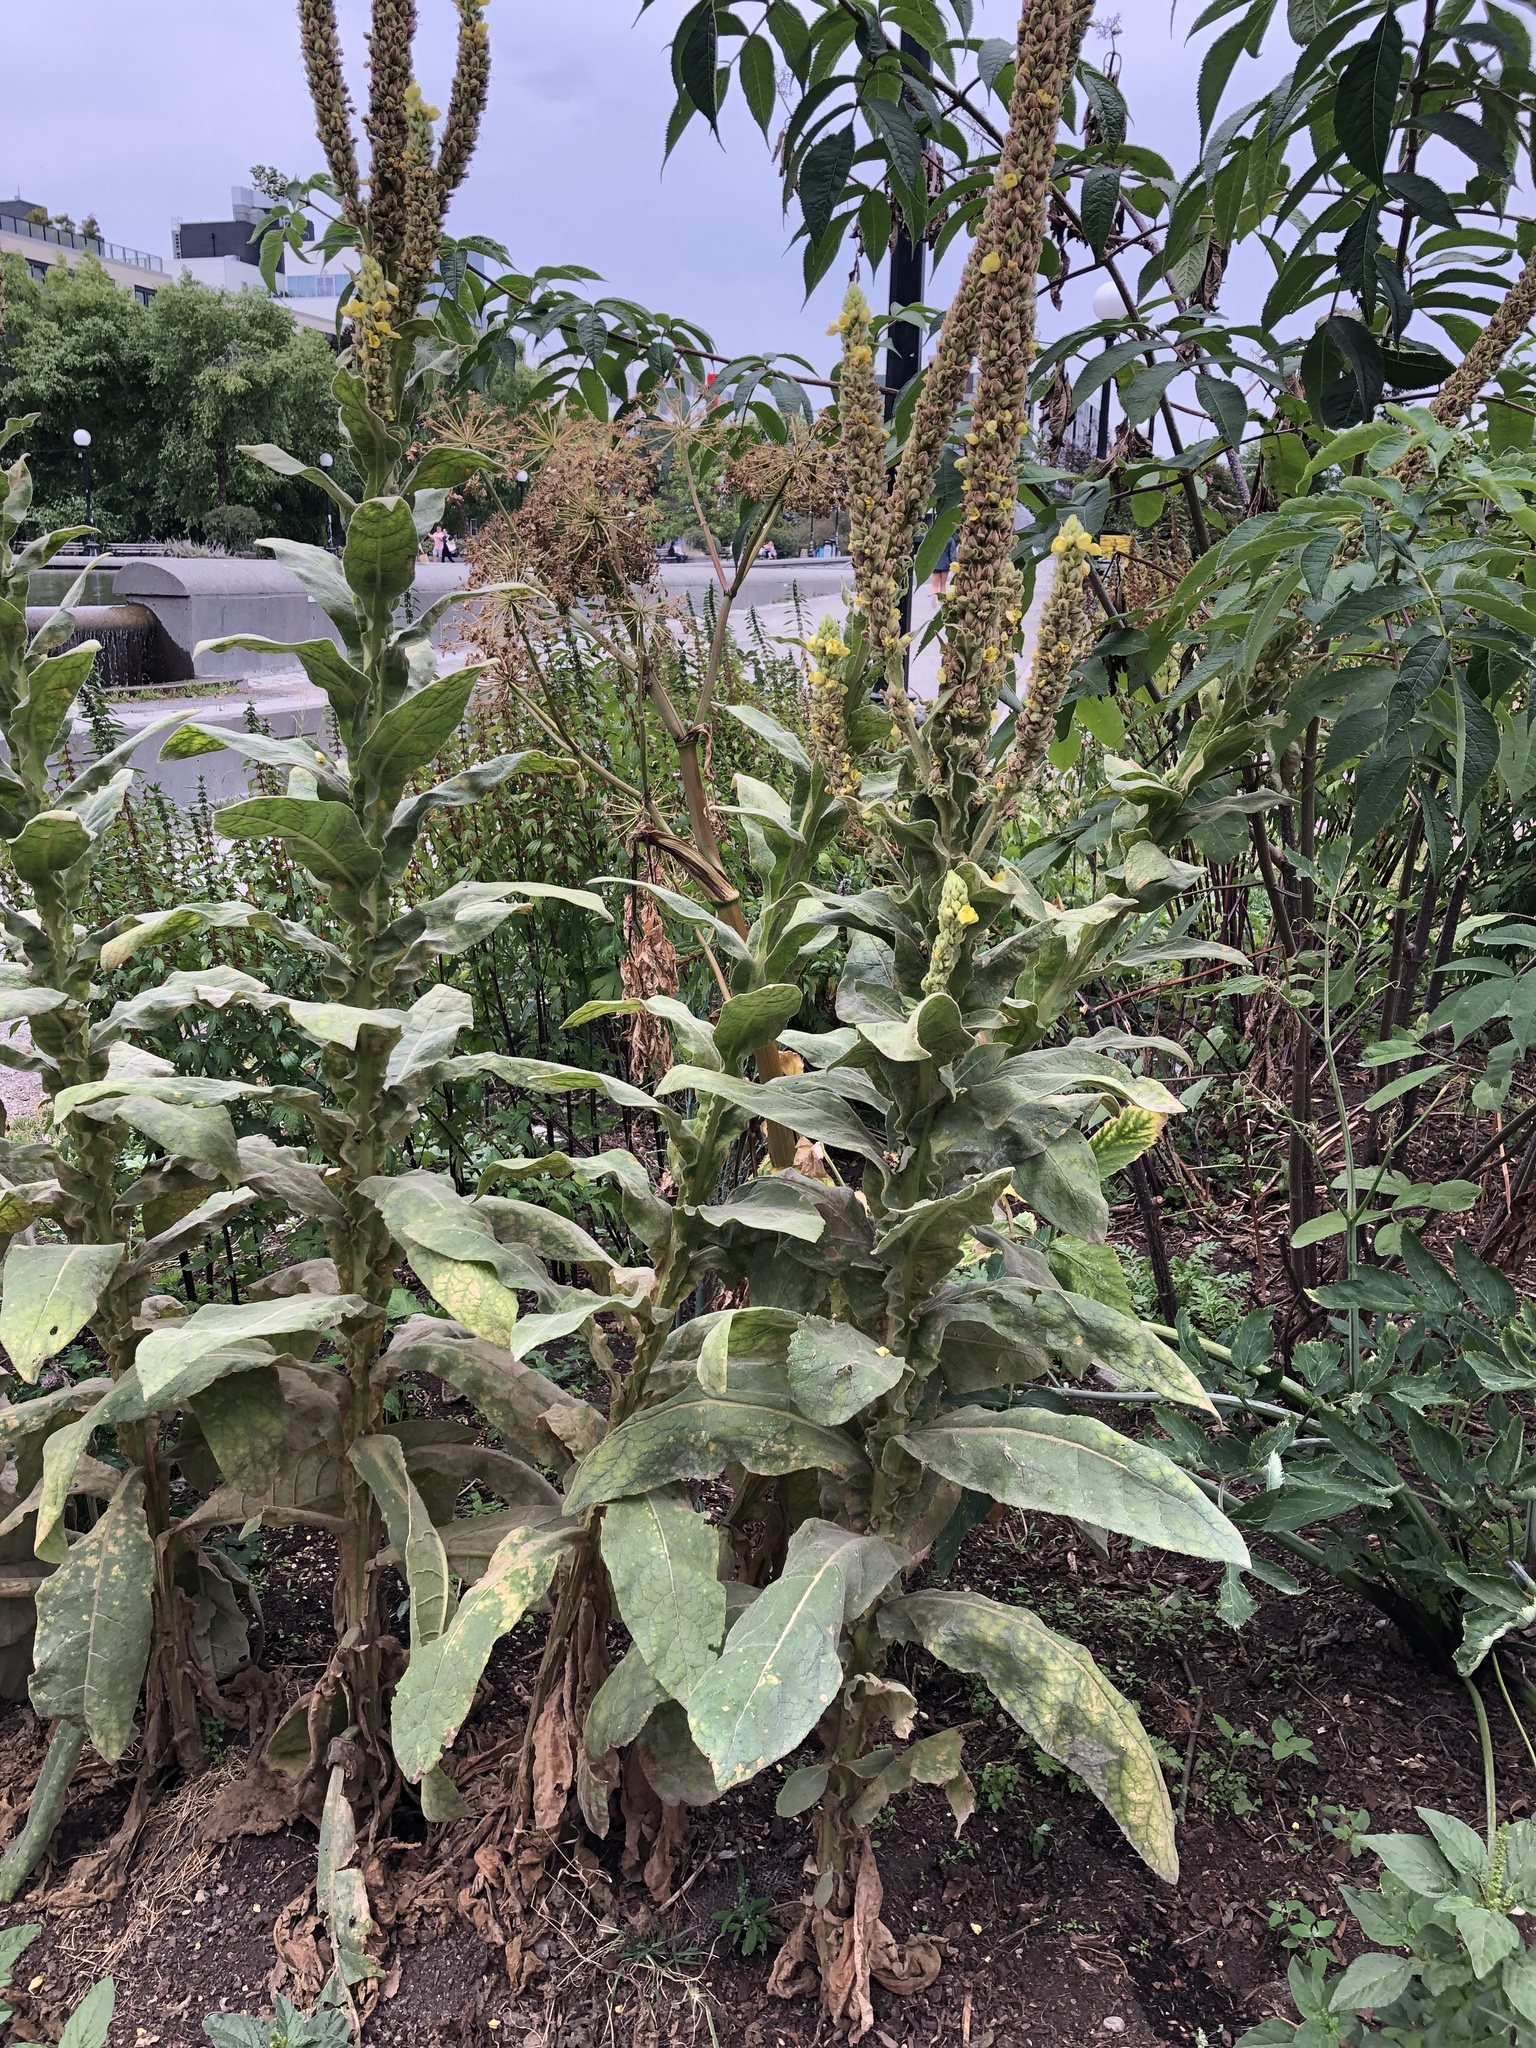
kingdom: Plantae
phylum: Tracheophyta
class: Magnoliopsida
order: Lamiales
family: Scrophulariaceae
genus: Verbascum
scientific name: Verbascum thapsus
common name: Common mullein
